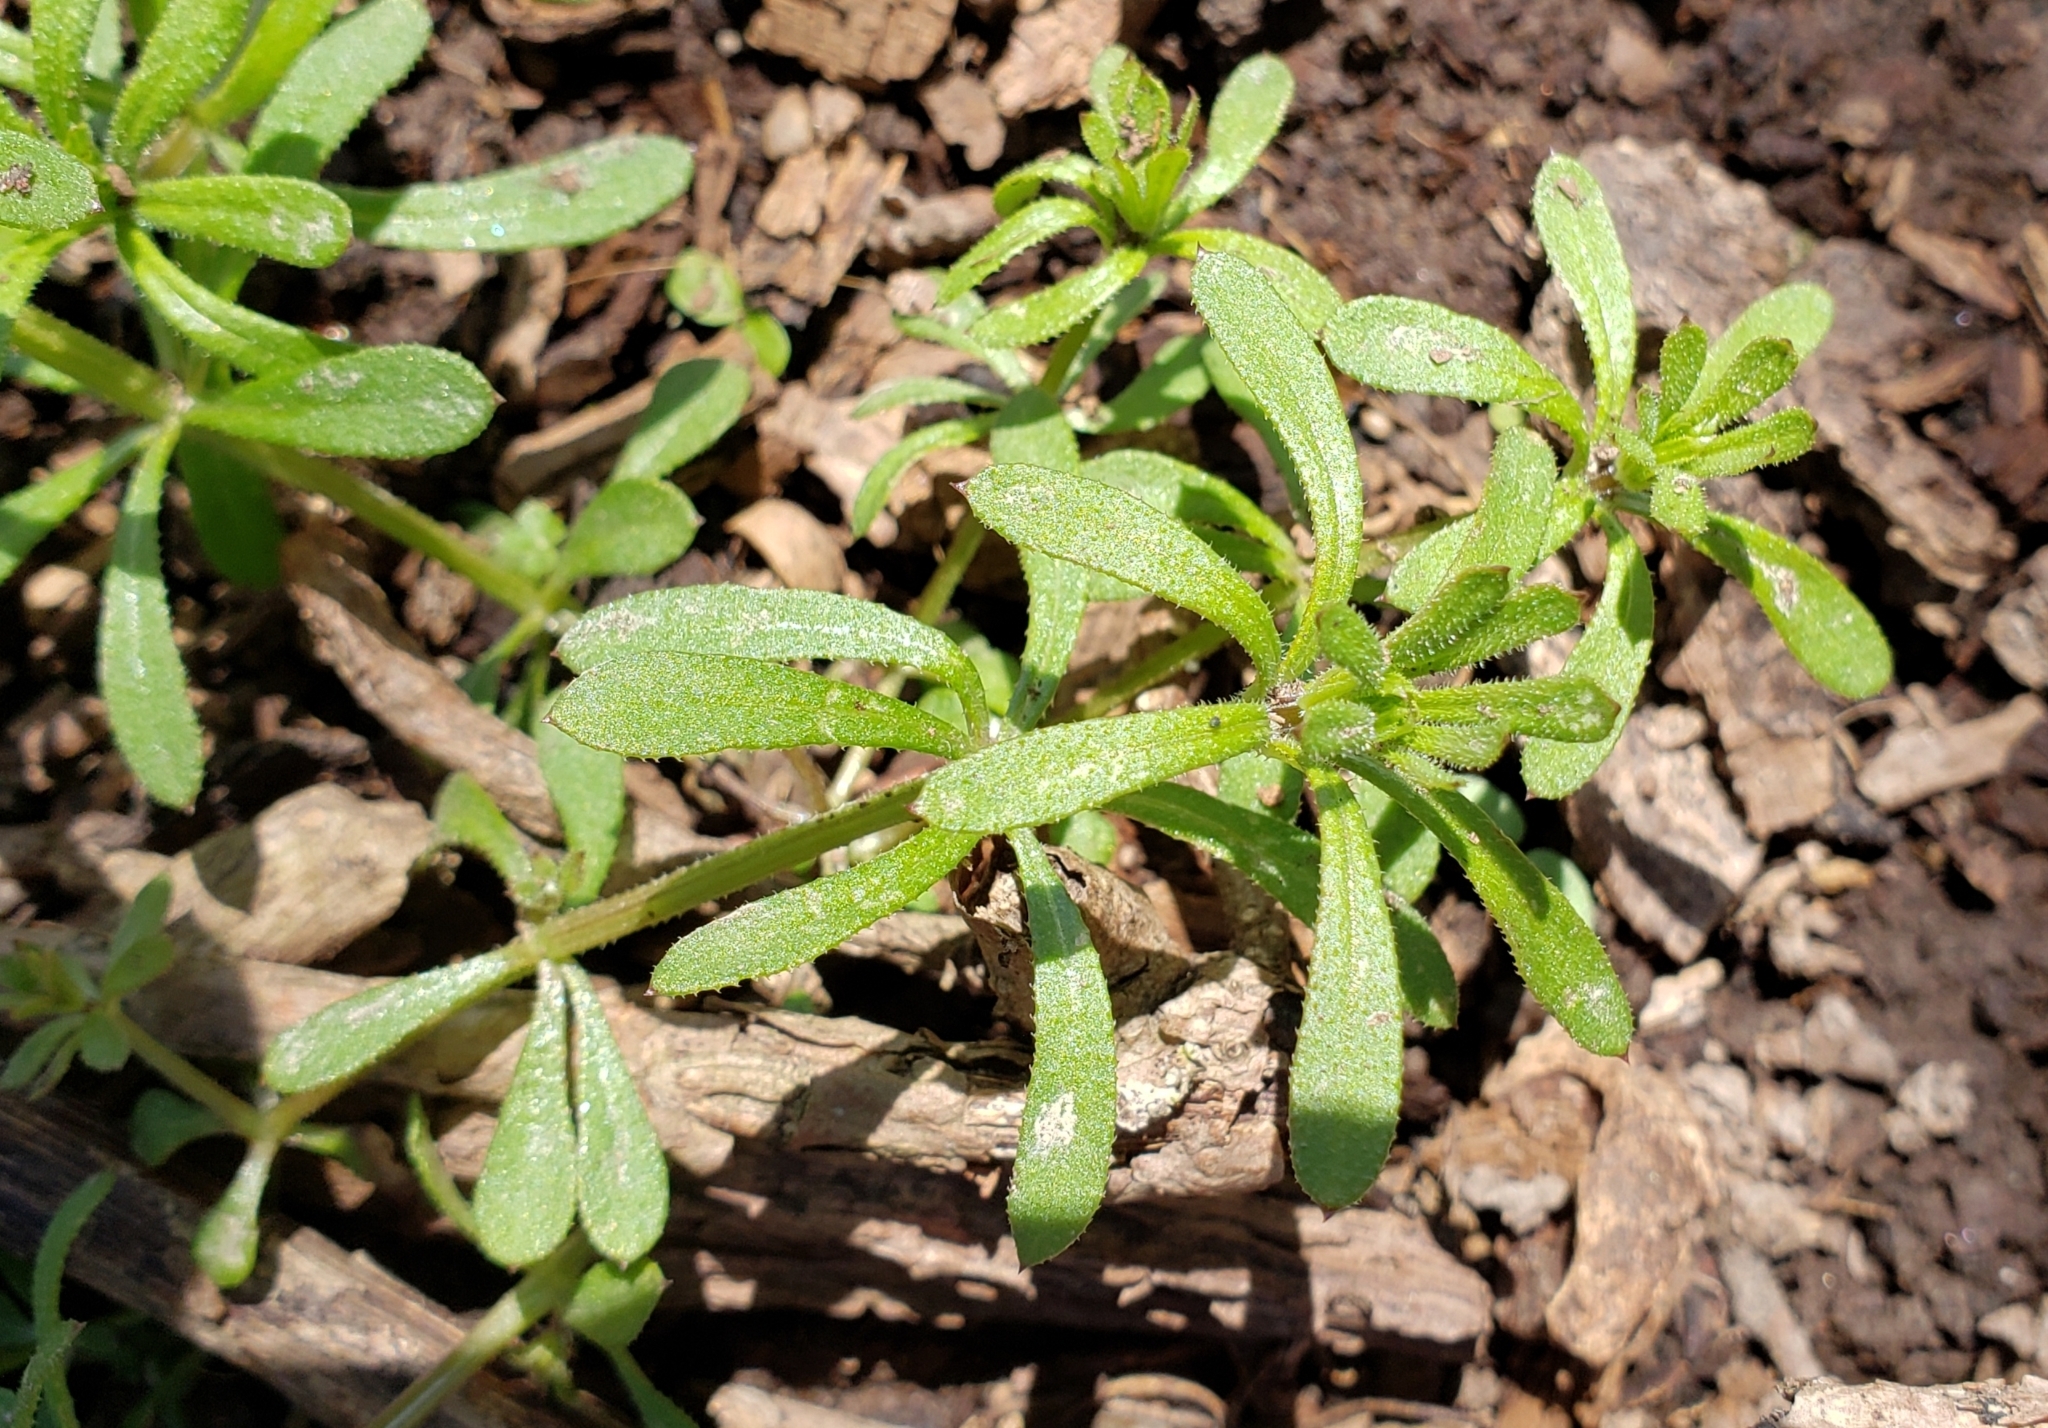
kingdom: Plantae
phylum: Tracheophyta
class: Magnoliopsida
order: Gentianales
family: Rubiaceae
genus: Galium
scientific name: Galium aparine
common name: Cleavers
